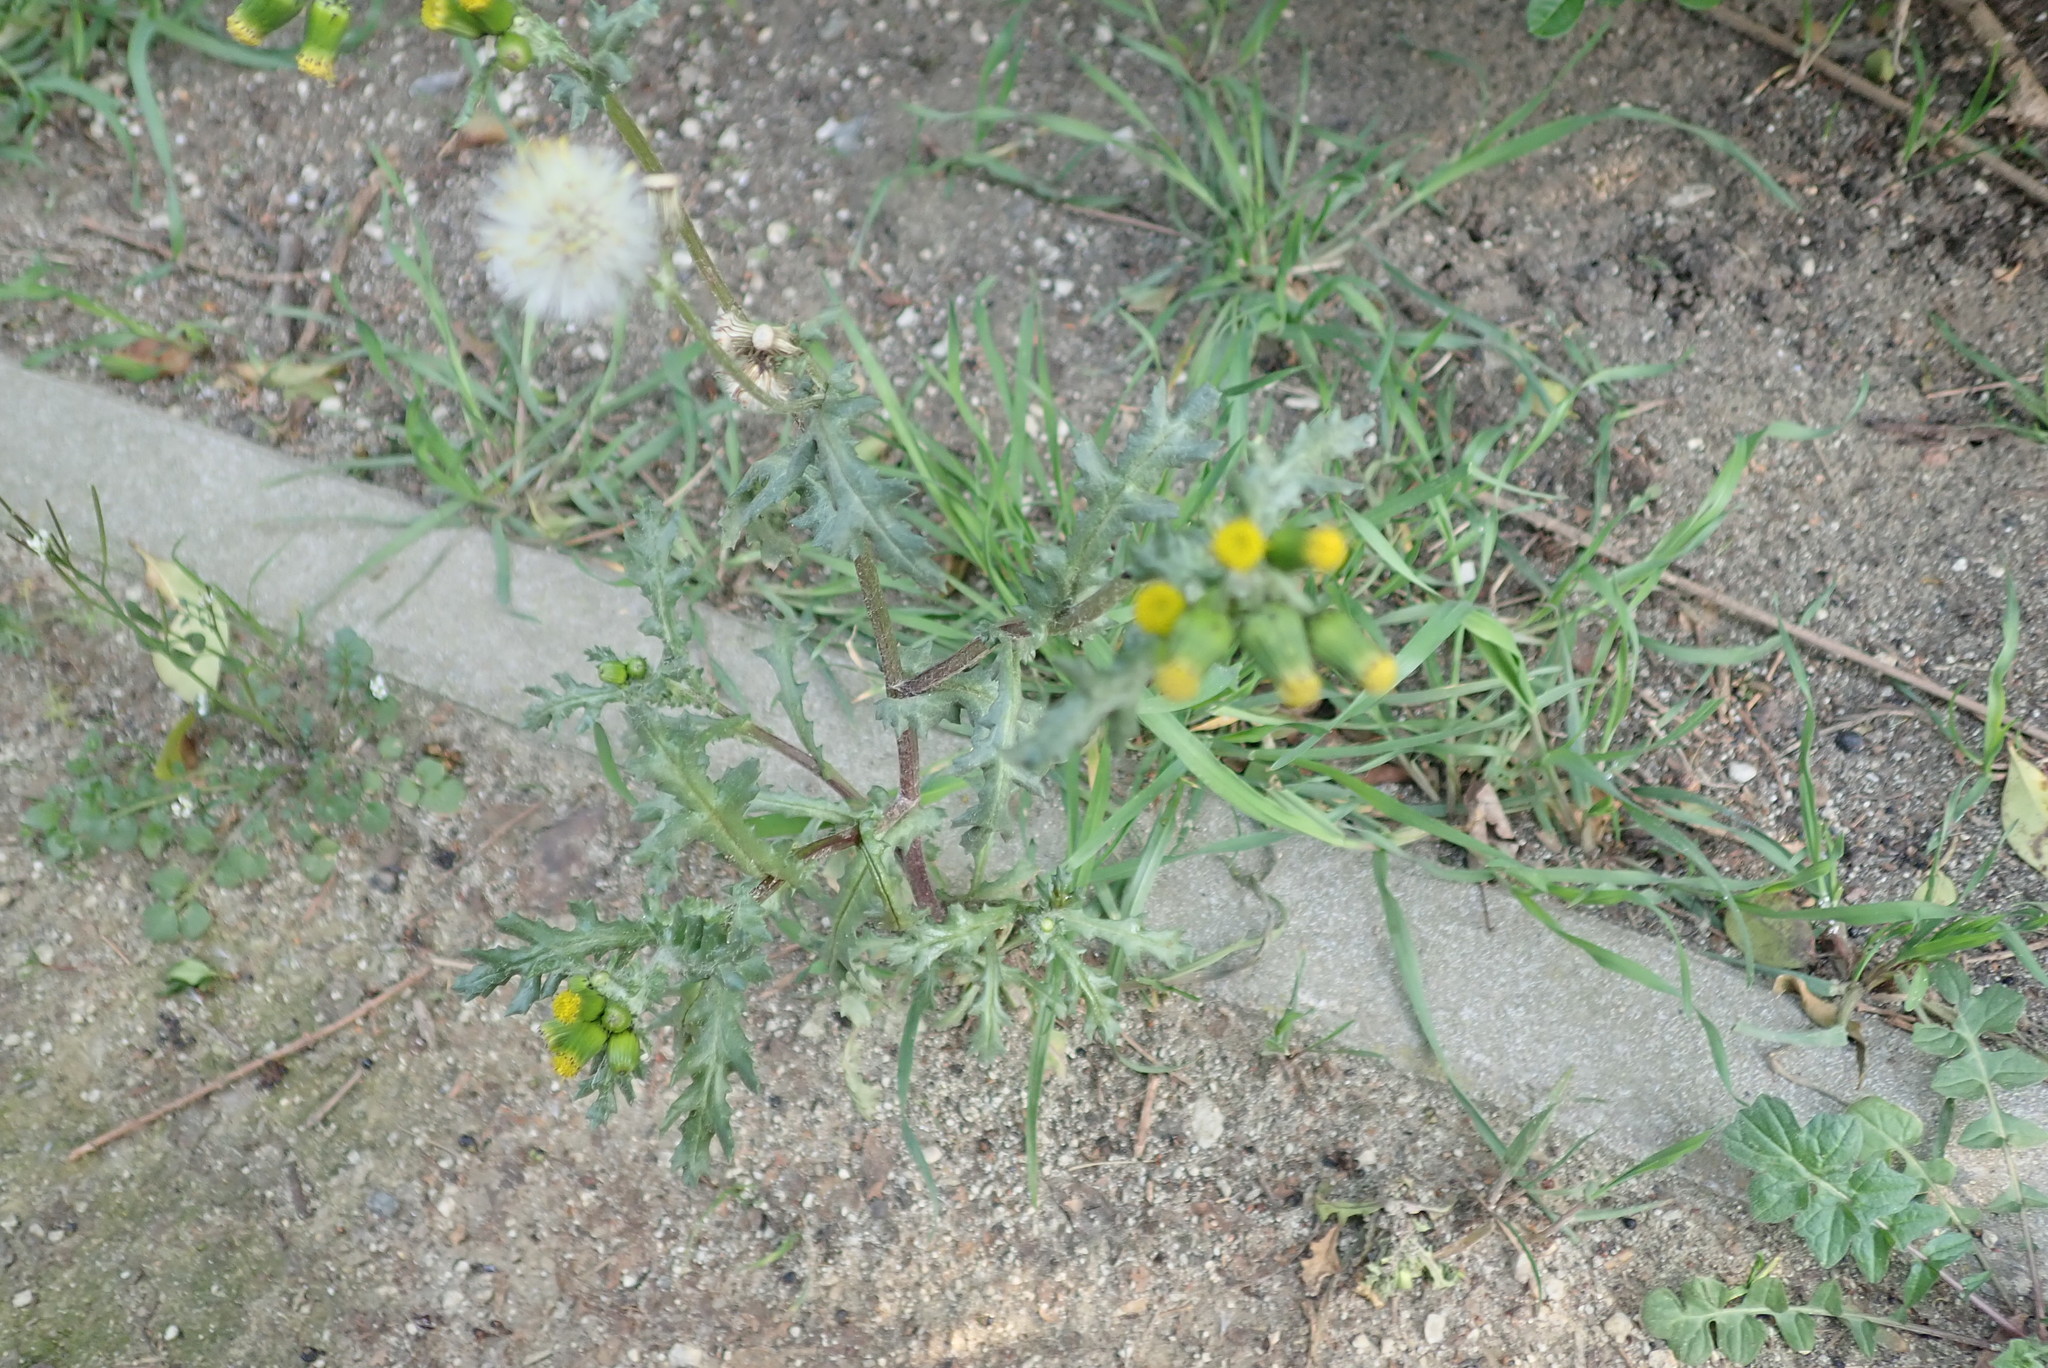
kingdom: Plantae
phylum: Tracheophyta
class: Magnoliopsida
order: Asterales
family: Asteraceae
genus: Senecio
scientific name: Senecio vulgaris
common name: Old-man-in-the-spring
